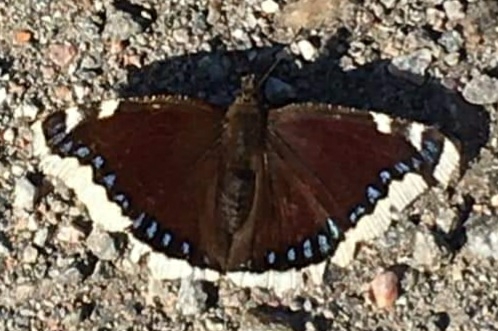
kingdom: Animalia
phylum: Arthropoda
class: Insecta
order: Lepidoptera
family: Nymphalidae
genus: Nymphalis
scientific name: Nymphalis antiopa
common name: Camberwell beauty
